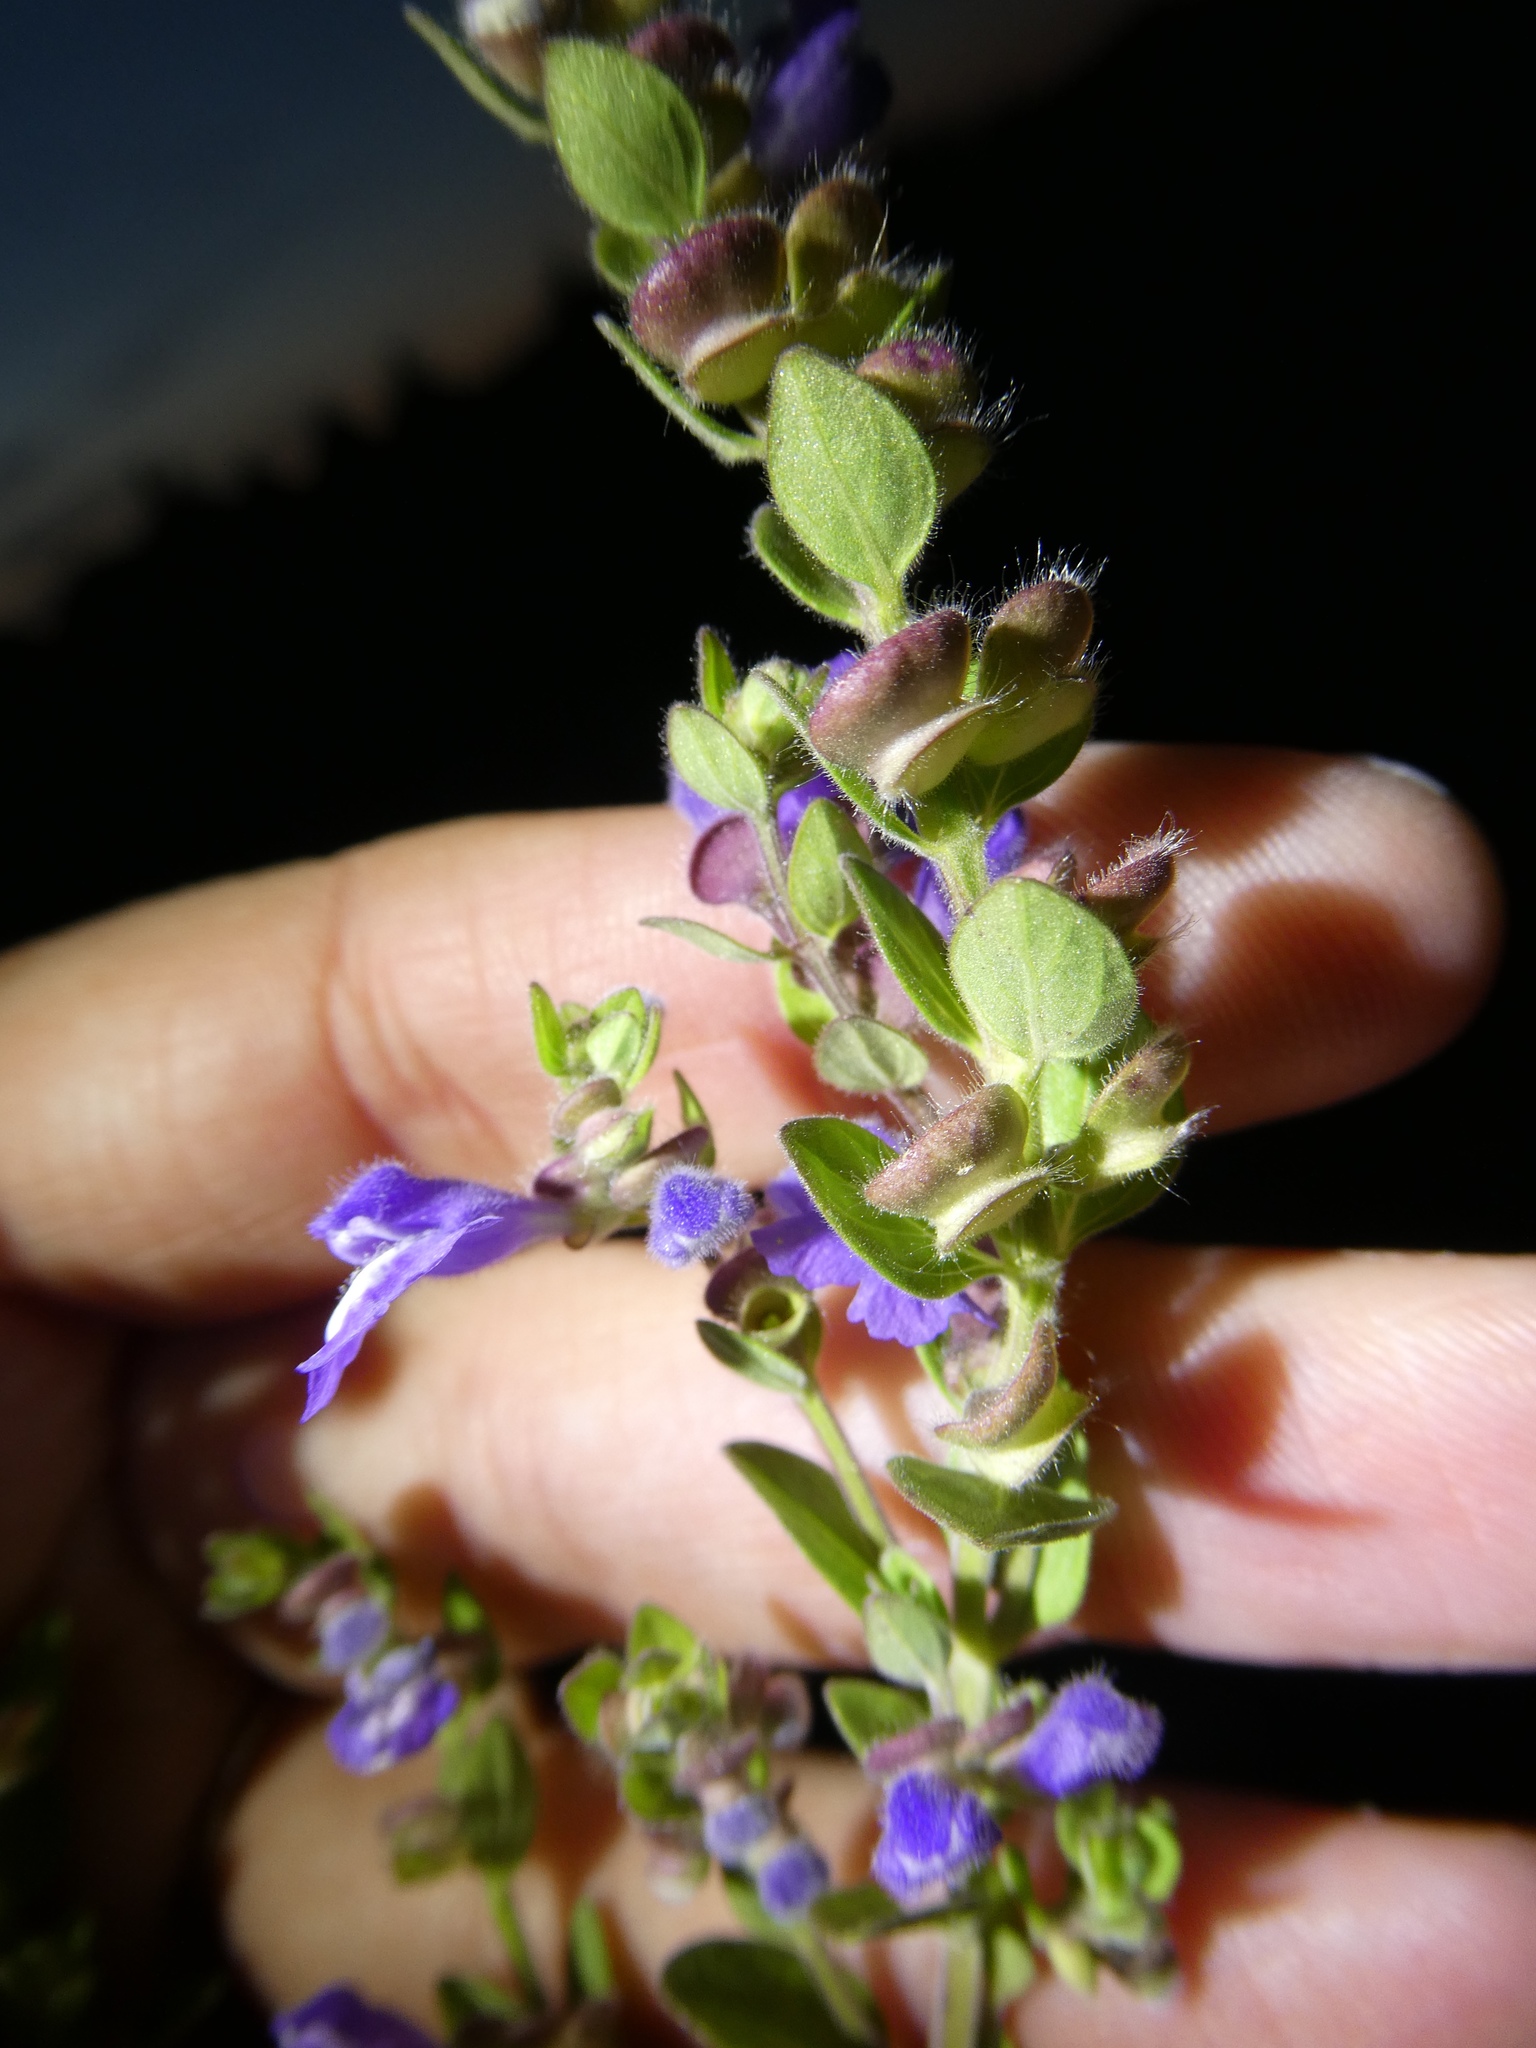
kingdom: Plantae
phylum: Tracheophyta
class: Magnoliopsida
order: Lamiales
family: Lamiaceae
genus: Scutellaria
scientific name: Scutellaria drummondii
